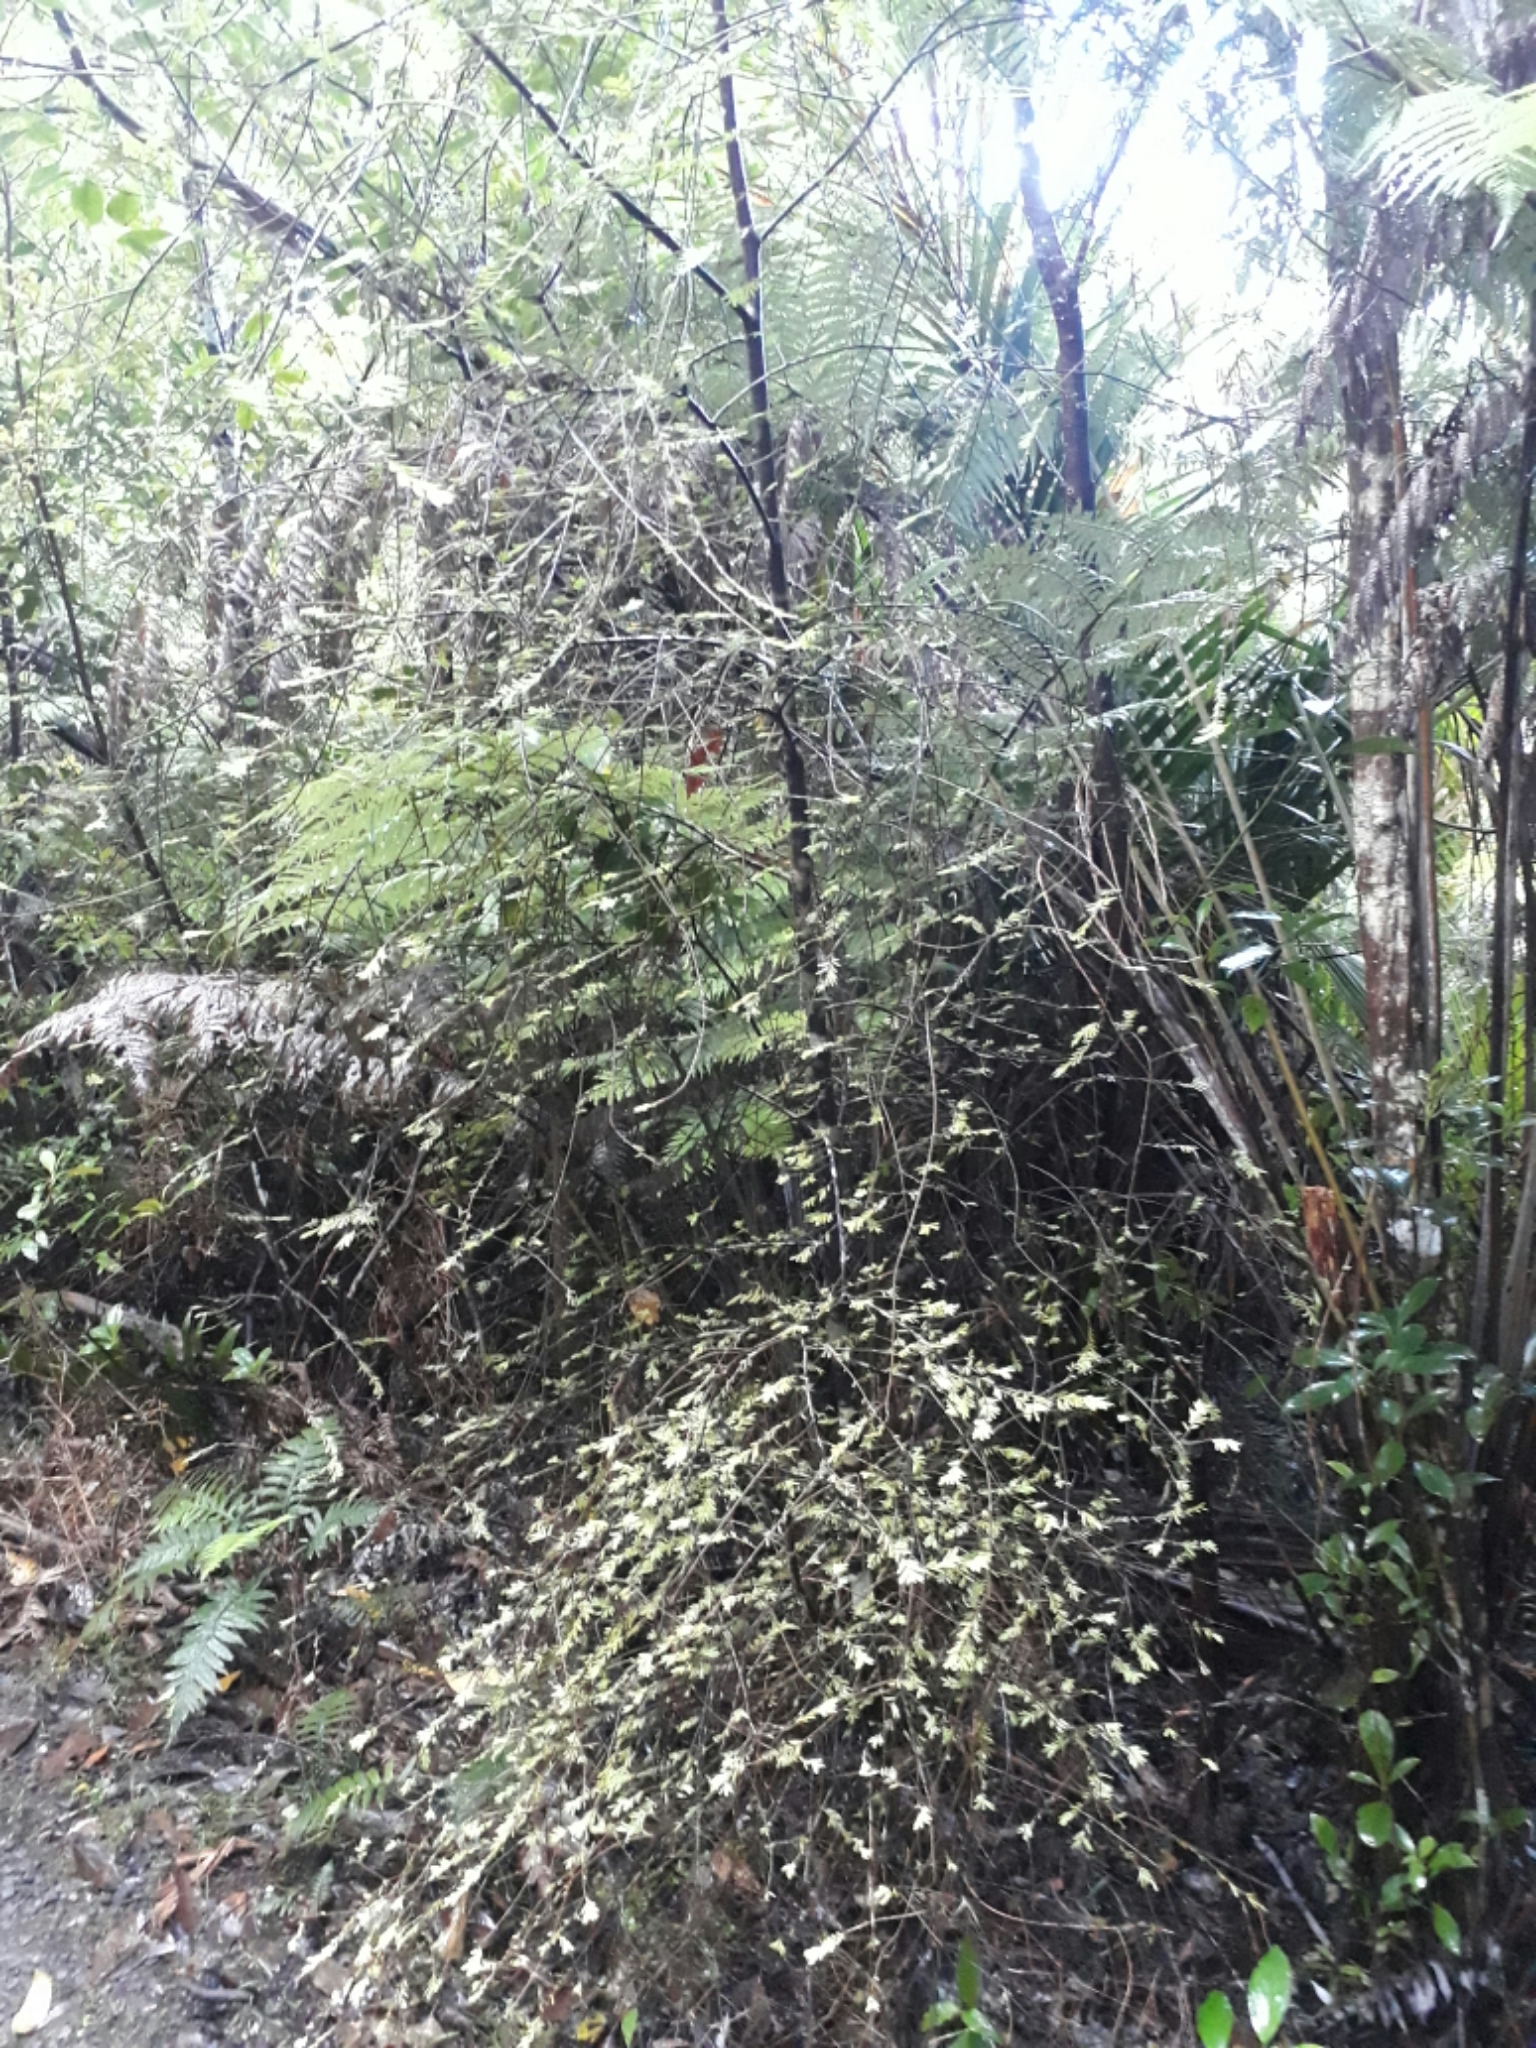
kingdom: Plantae
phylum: Tracheophyta
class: Pinopsida
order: Pinales
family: Podocarpaceae
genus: Prumnopitys
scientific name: Prumnopitys taxifolia
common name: Matai
